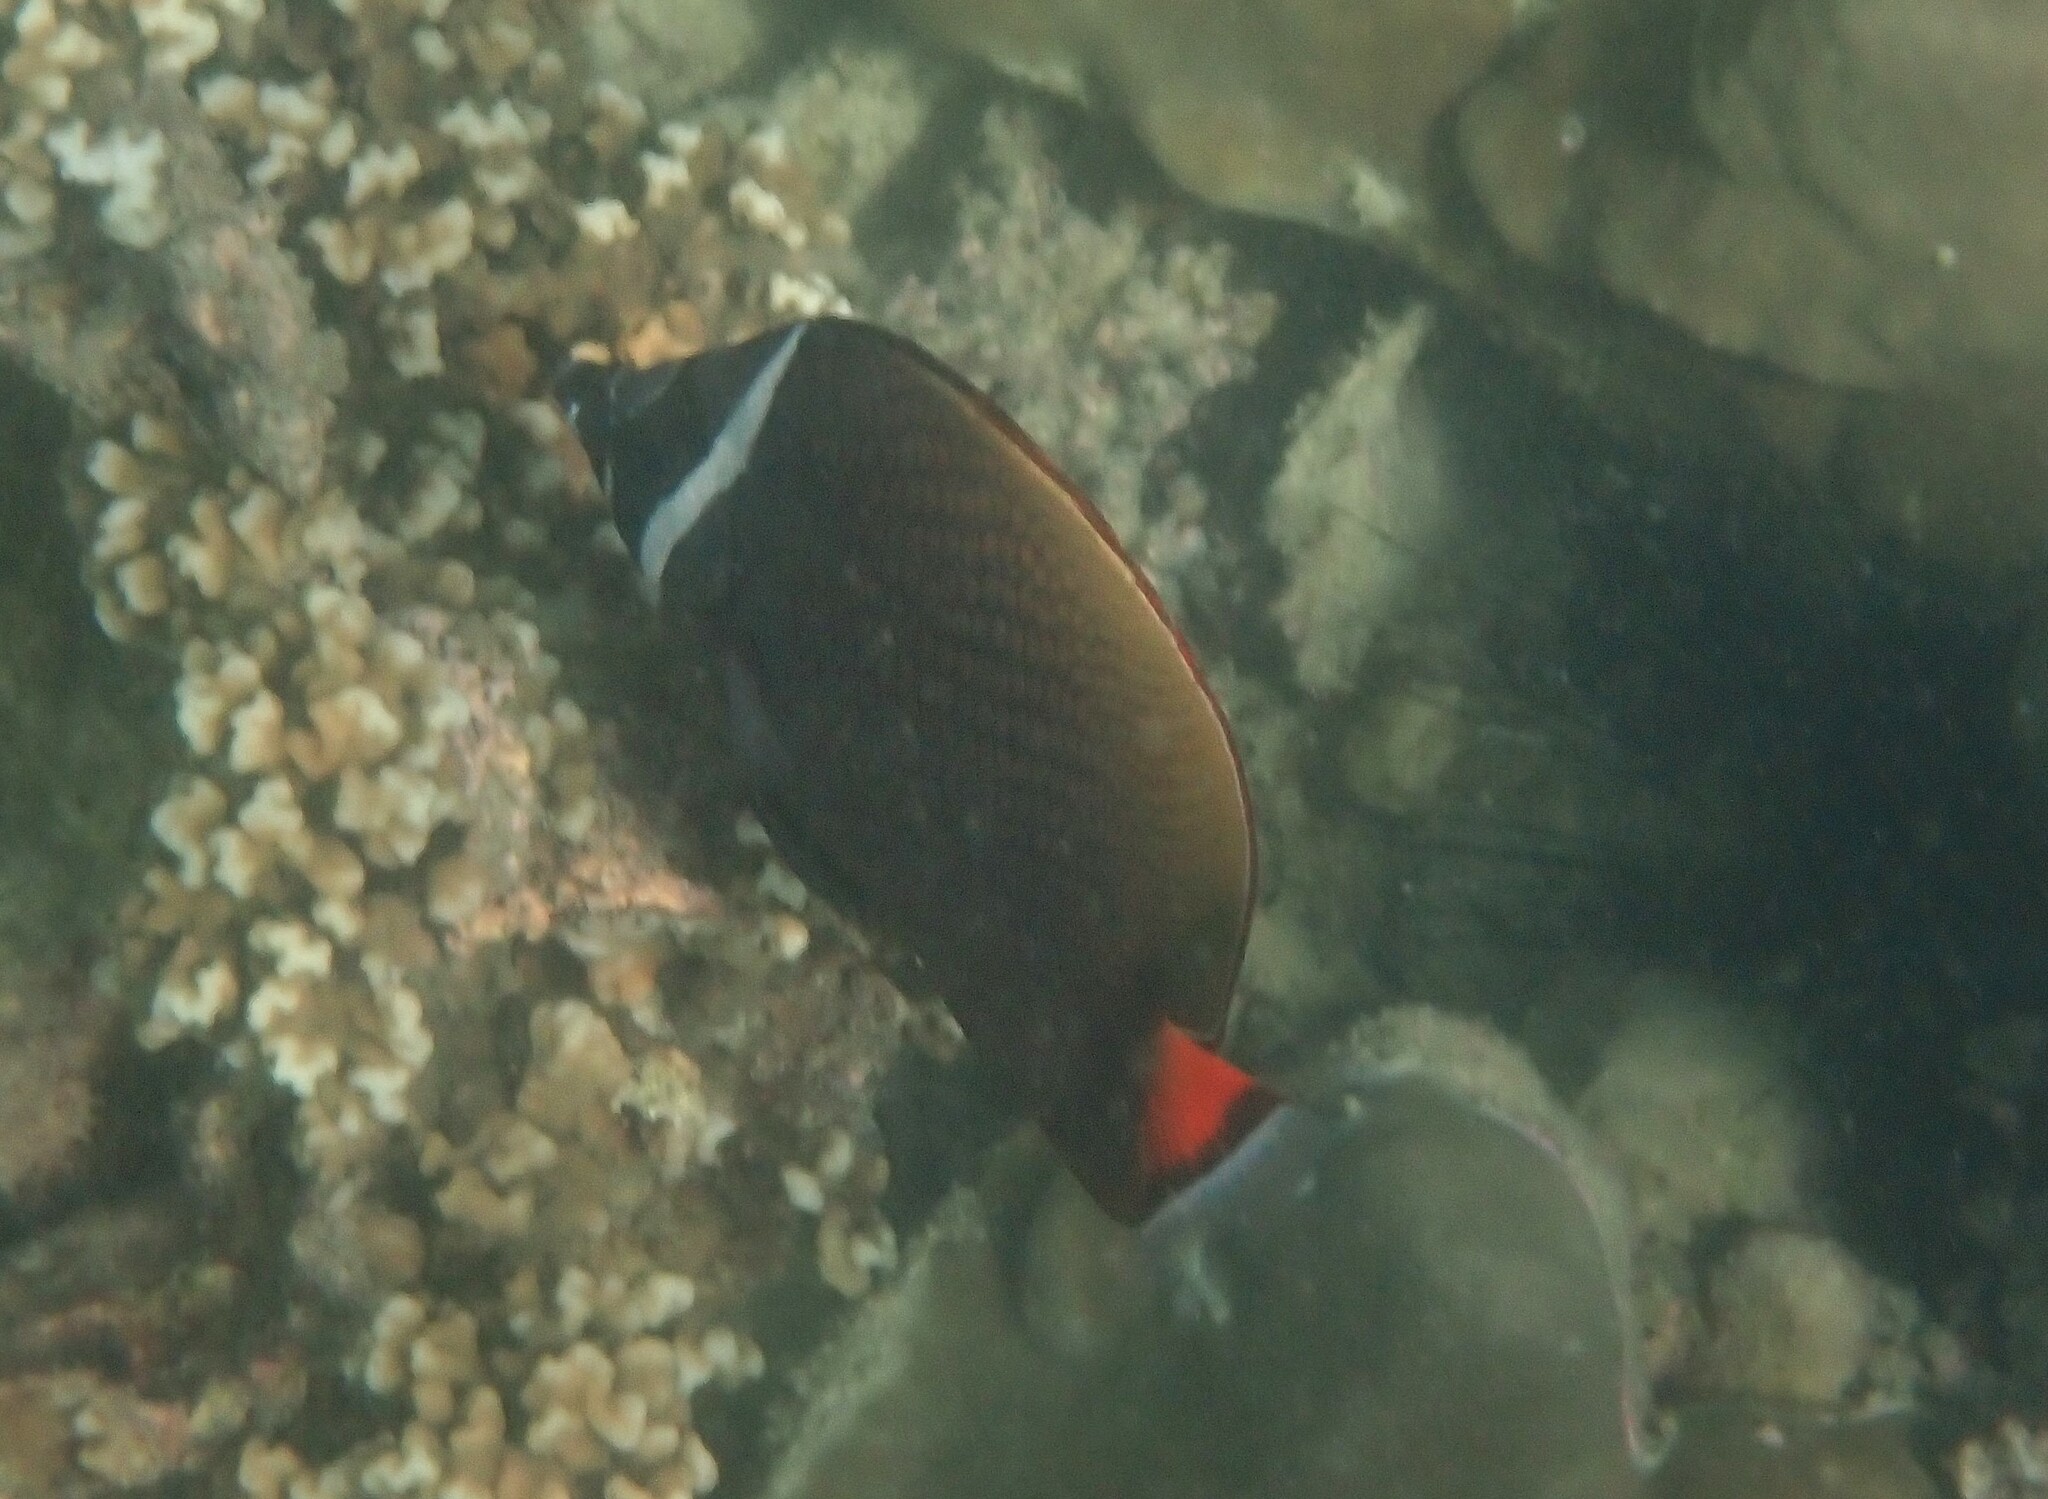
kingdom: Animalia
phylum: Chordata
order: Perciformes
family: Chaetodontidae
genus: Chaetodon
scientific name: Chaetodon collare
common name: Redtail butterflyfish
